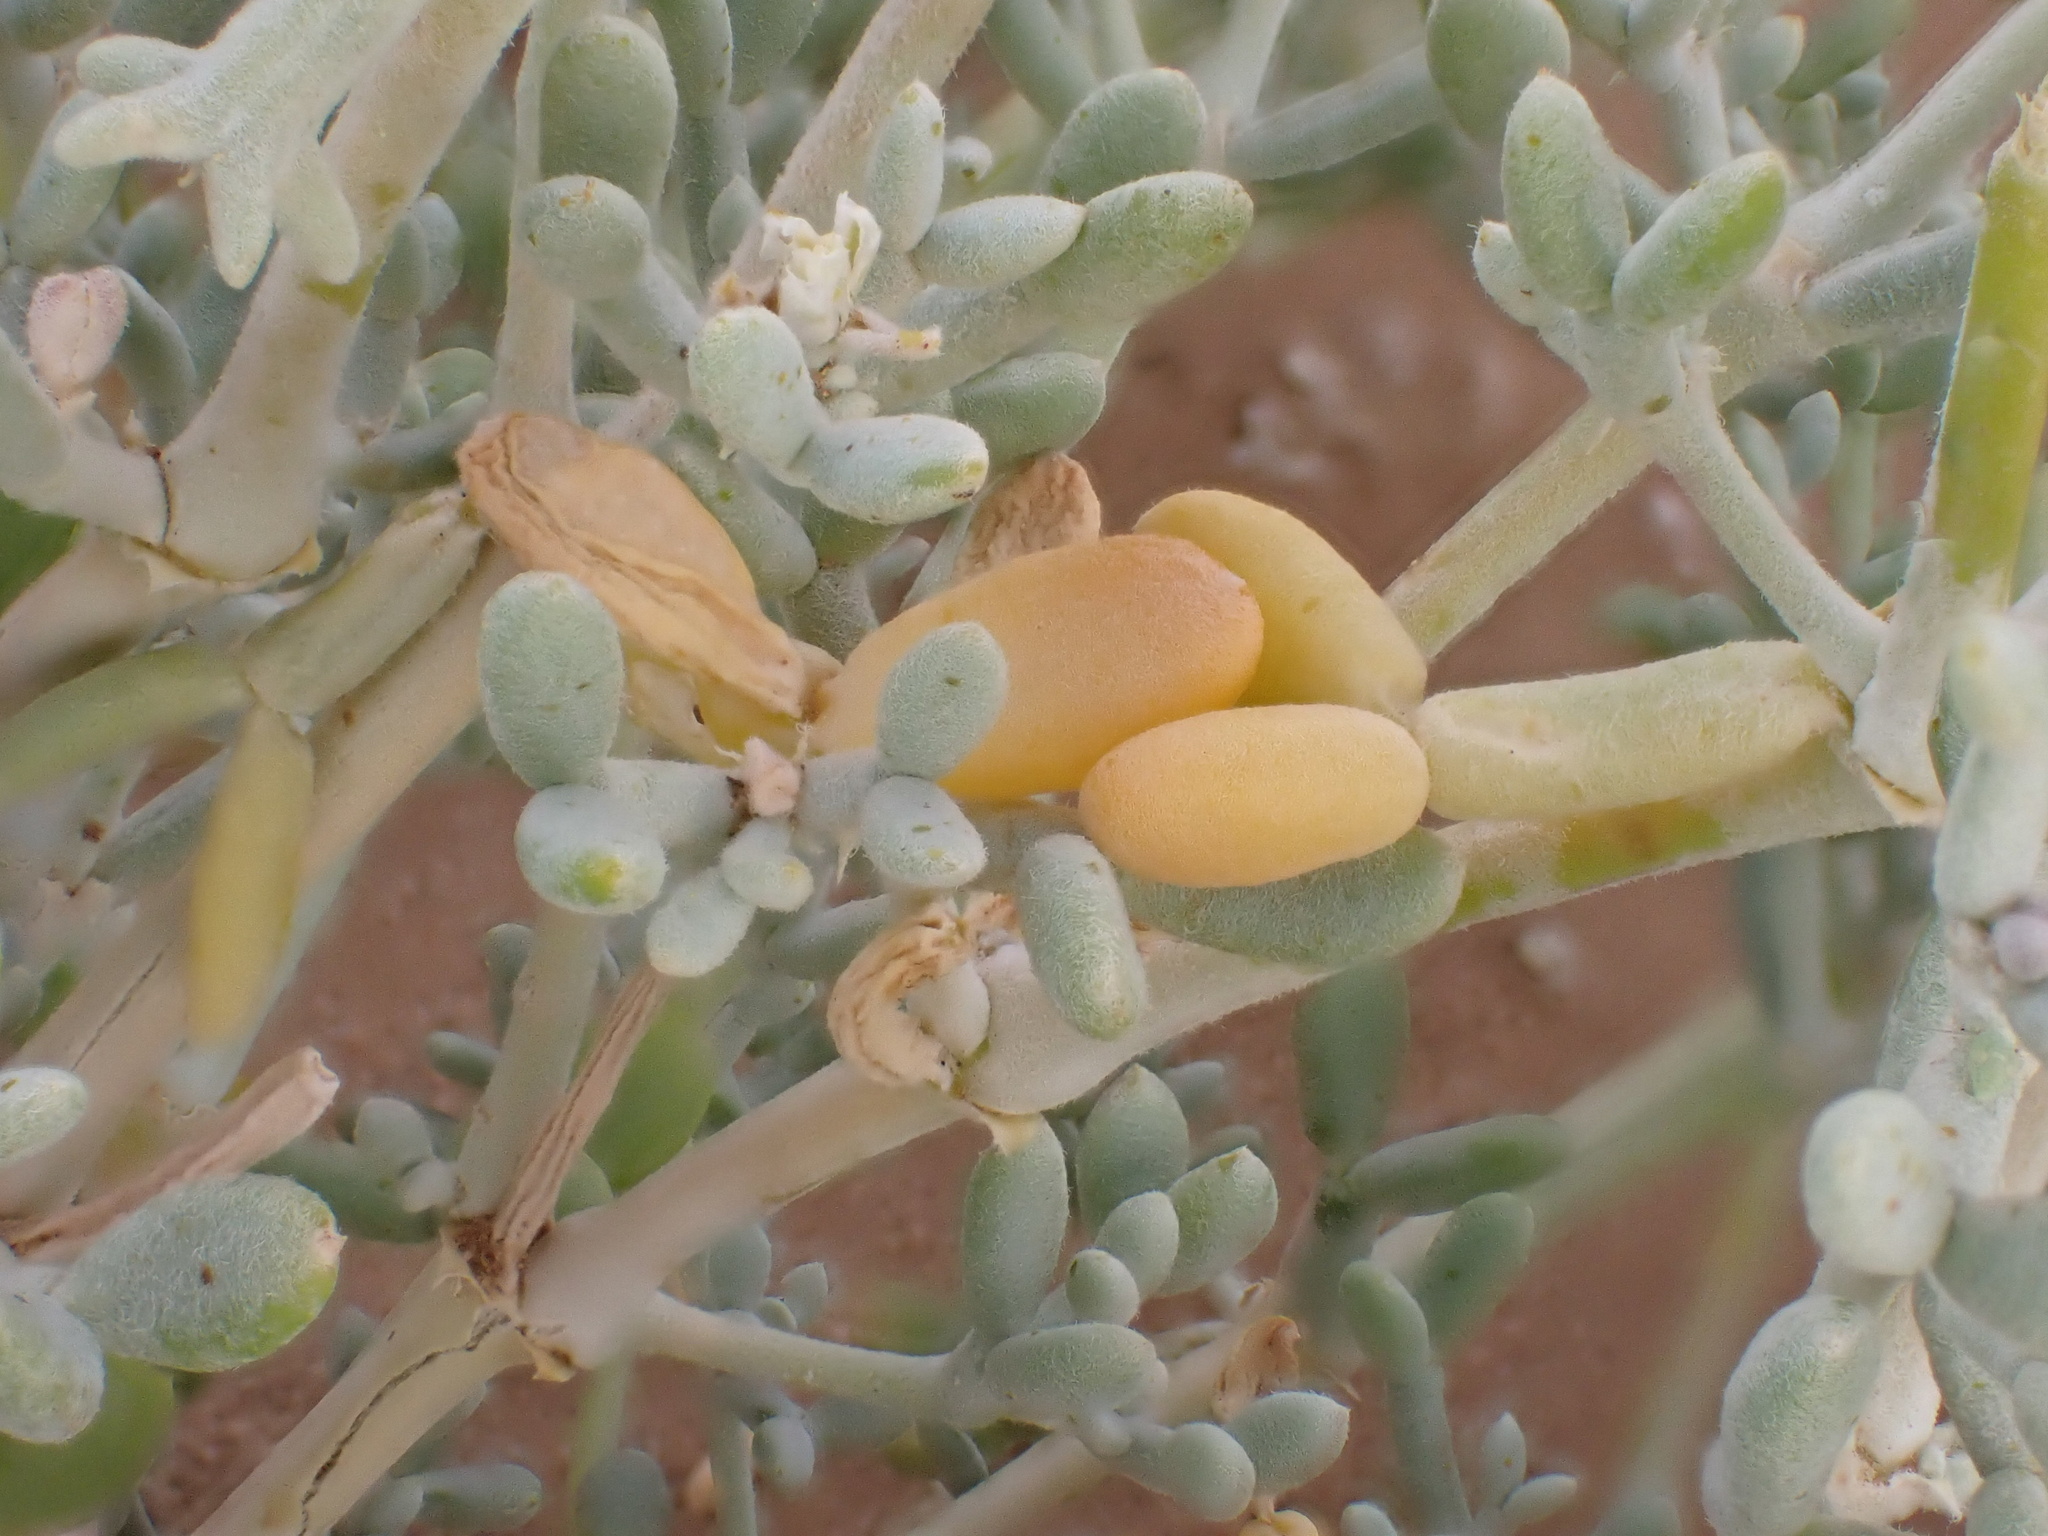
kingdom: Plantae
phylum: Tracheophyta
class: Magnoliopsida
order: Zygophyllales
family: Zygophyllaceae
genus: Tetraena
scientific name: Tetraena gaetula
